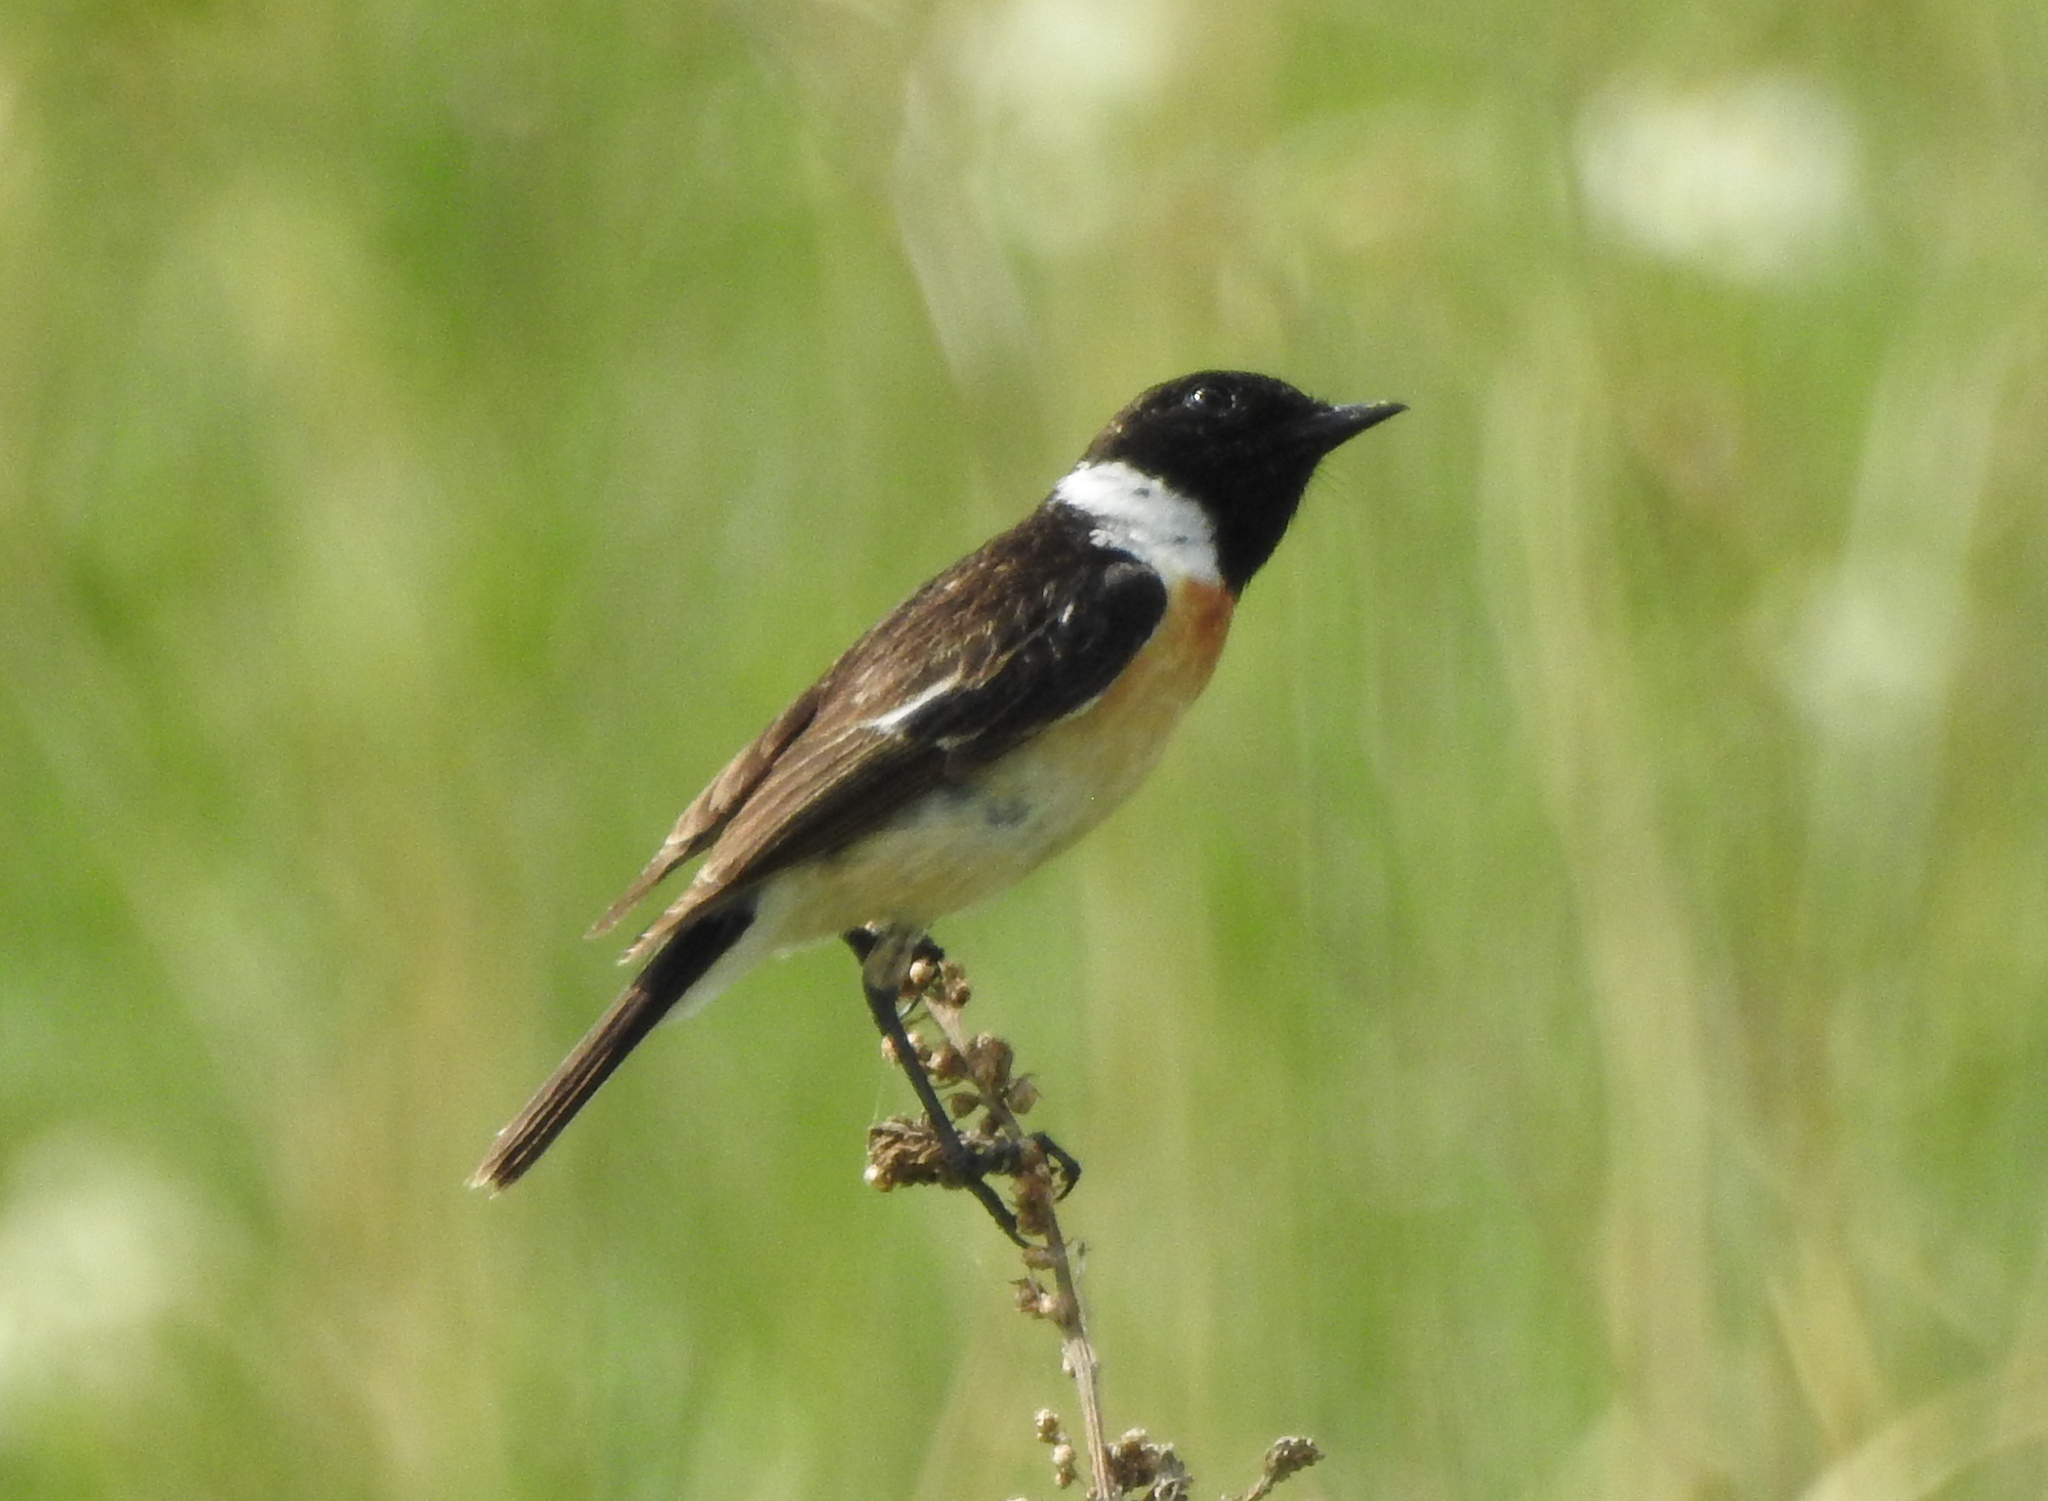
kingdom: Animalia
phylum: Chordata
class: Aves
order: Passeriformes
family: Muscicapidae
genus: Saxicola
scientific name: Saxicola maurus
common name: Siberian stonechat
